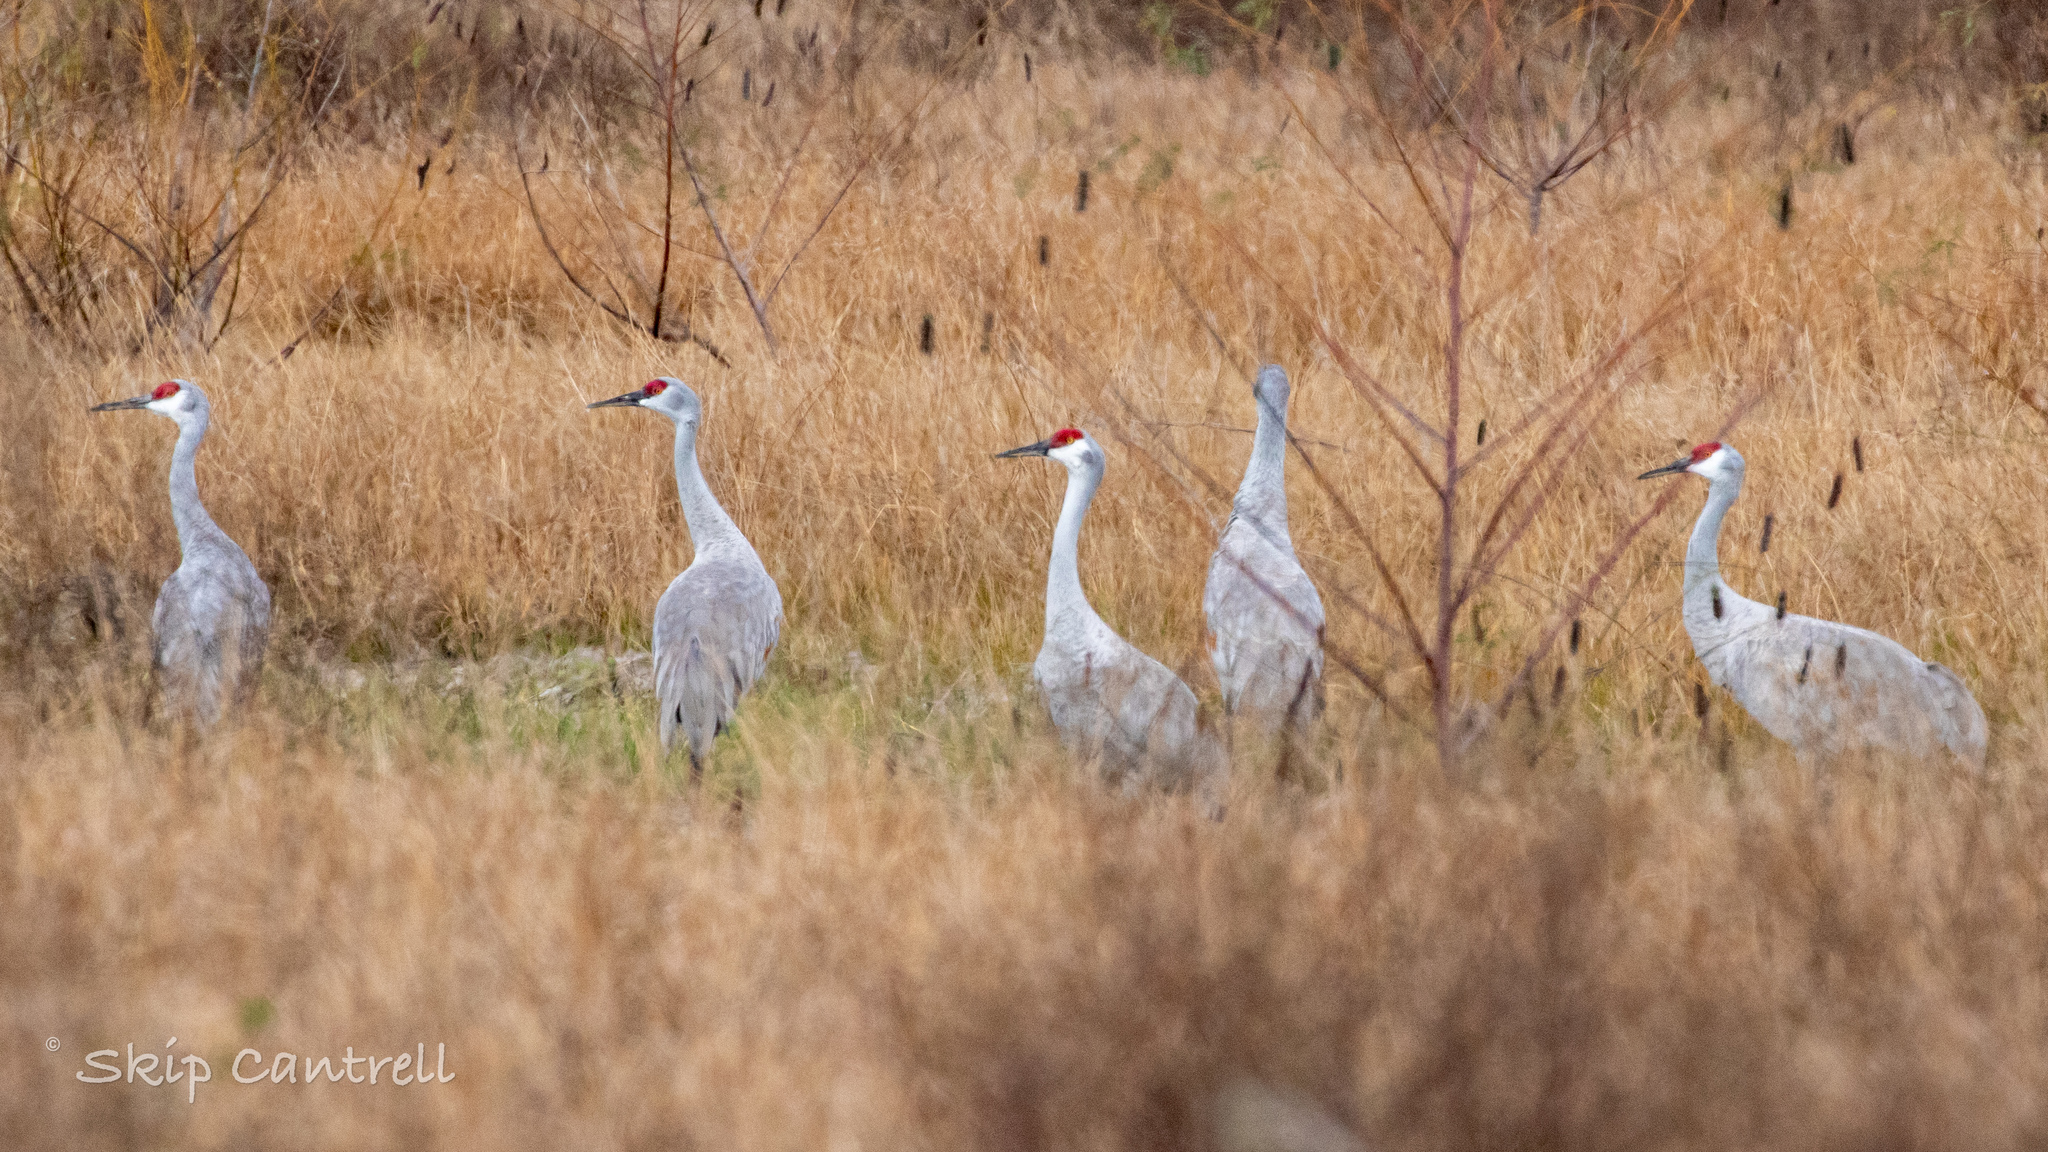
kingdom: Animalia
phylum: Chordata
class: Aves
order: Gruiformes
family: Gruidae
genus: Grus
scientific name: Grus canadensis
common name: Sandhill crane
